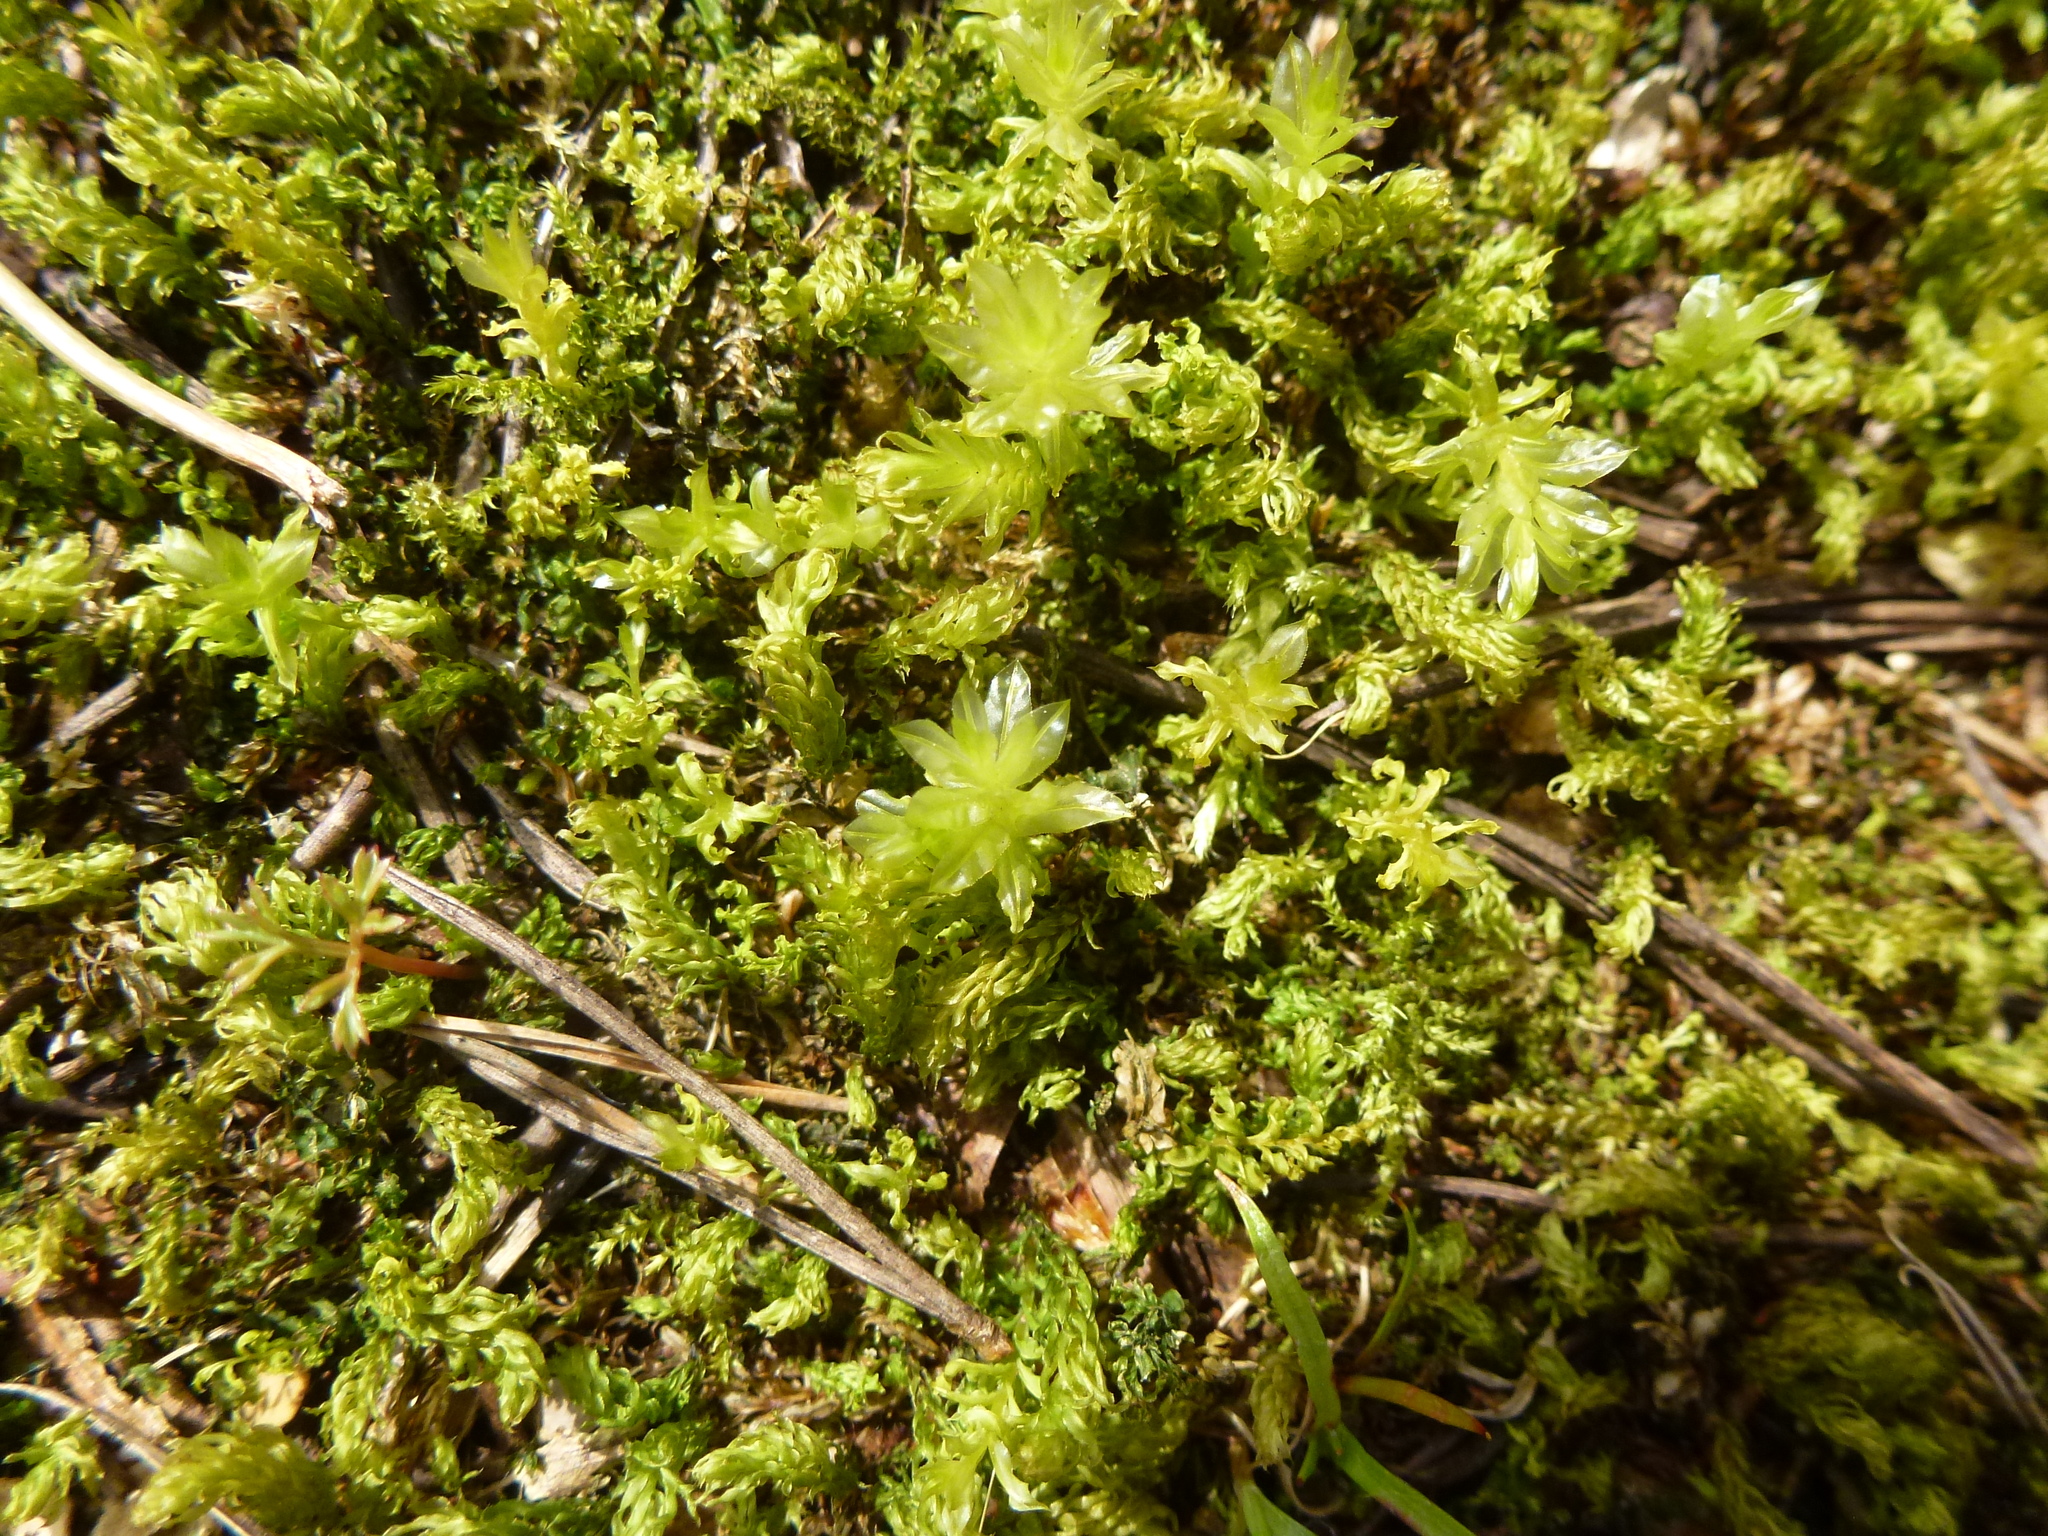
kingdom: Plantae
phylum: Bryophyta
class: Bryopsida
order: Bryales
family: Mniaceae
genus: Plagiomnium
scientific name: Plagiomnium undulatum
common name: Hart's-tongue thyme-moss
